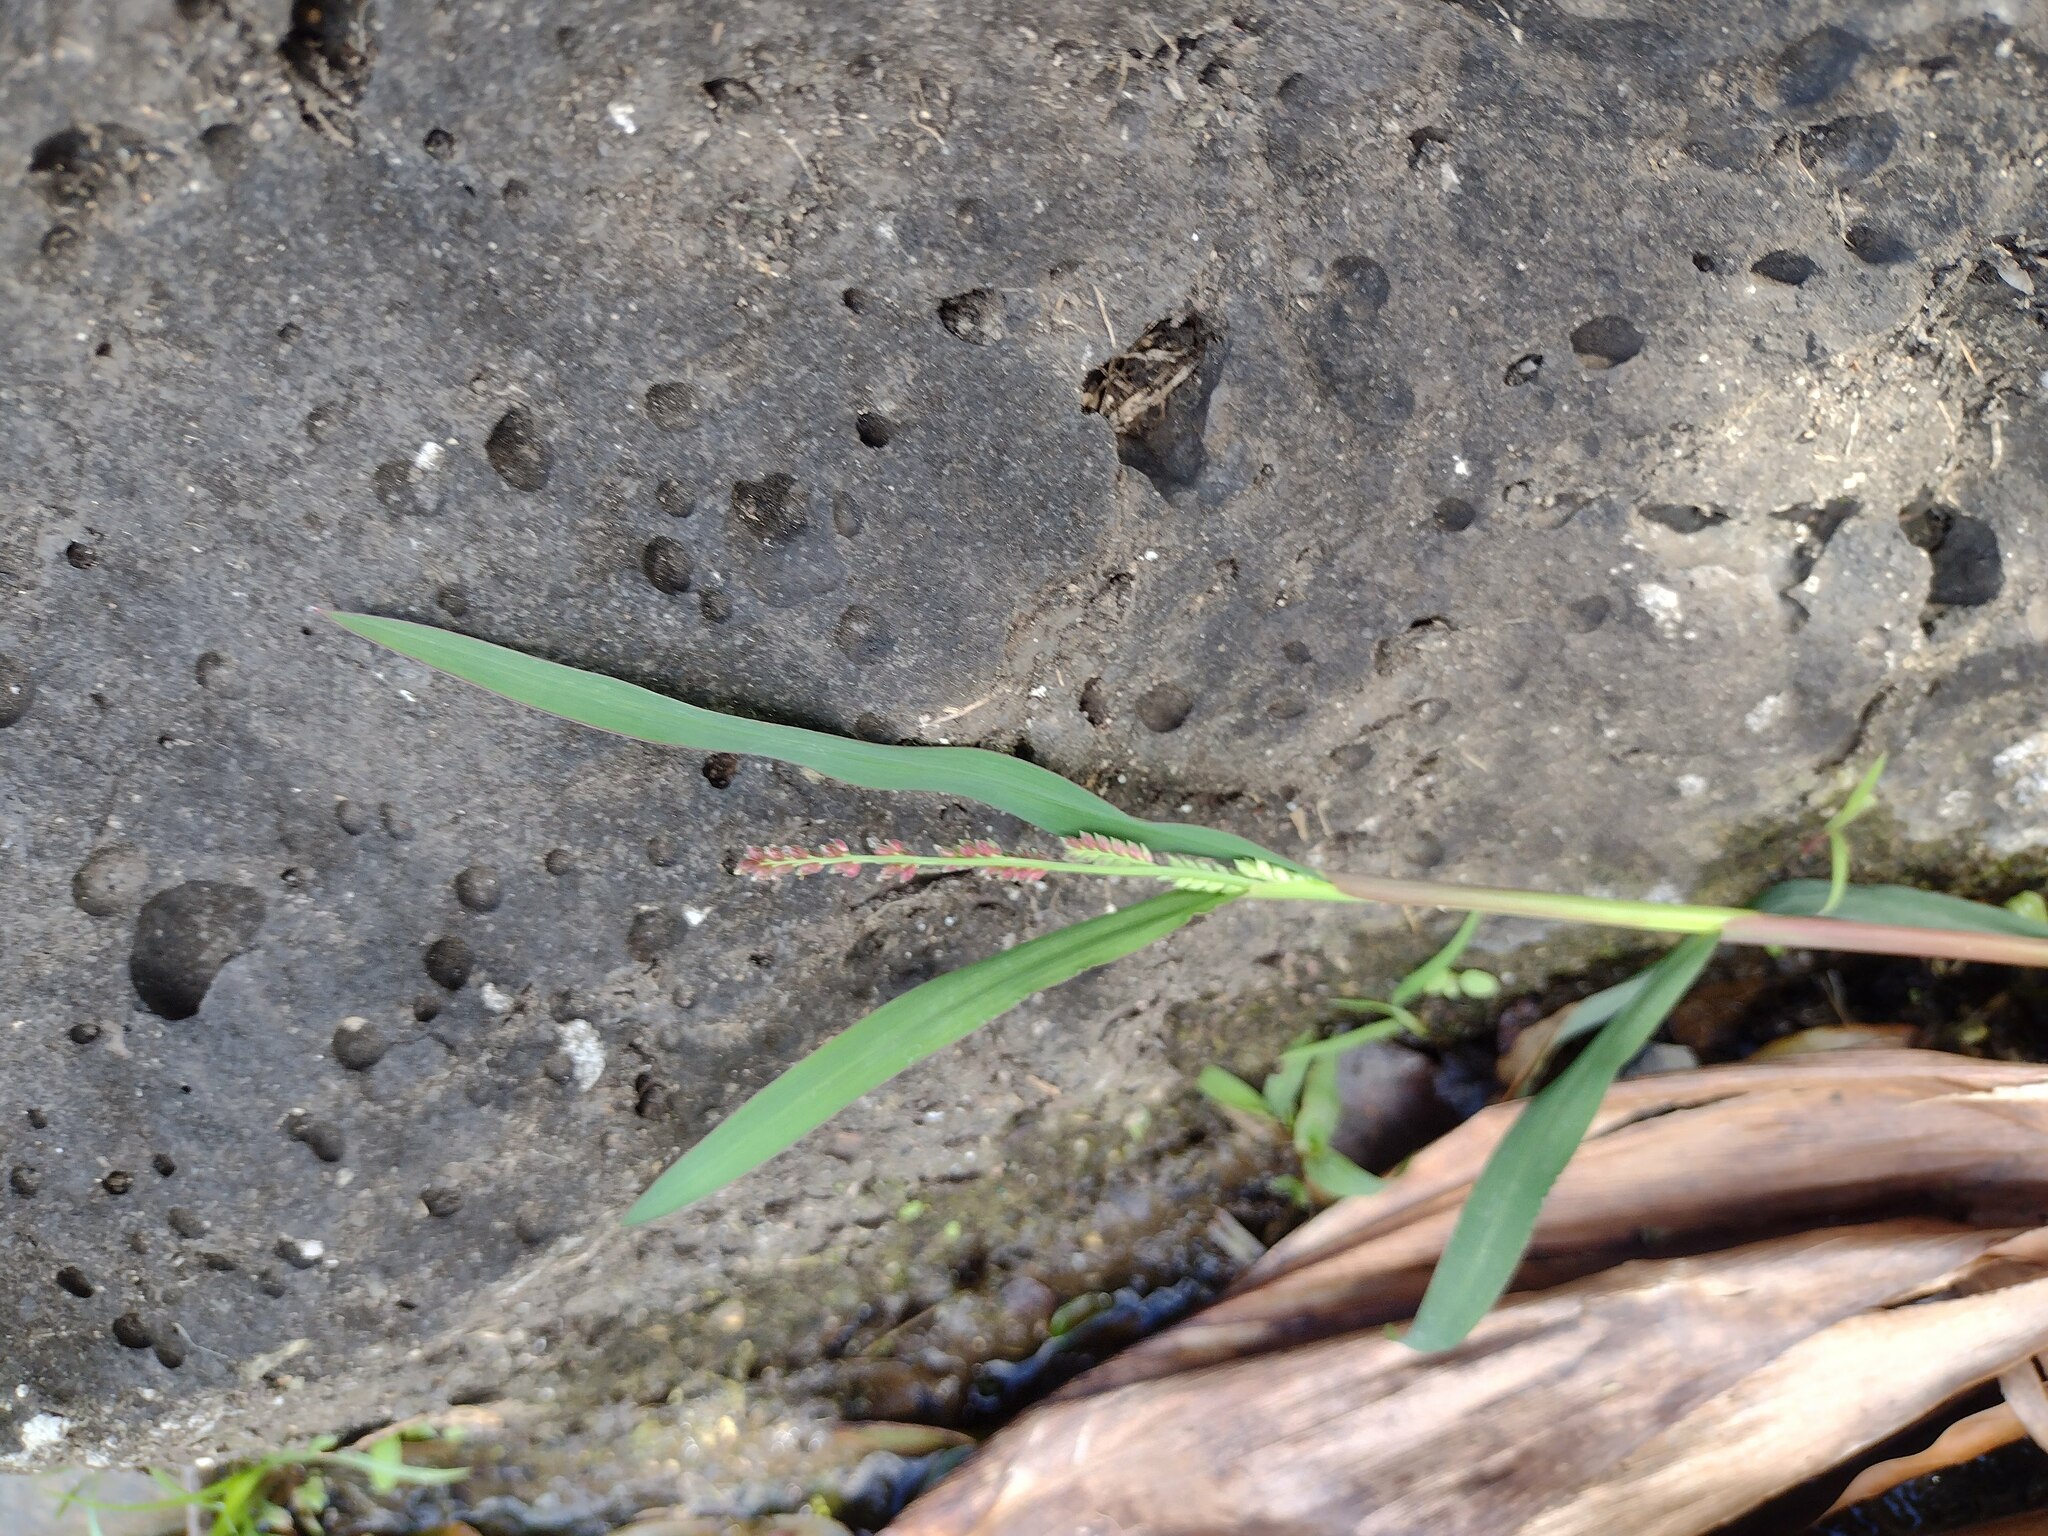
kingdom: Plantae
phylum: Tracheophyta
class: Liliopsida
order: Poales
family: Poaceae
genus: Echinochloa
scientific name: Echinochloa colonum
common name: Jungle rice
